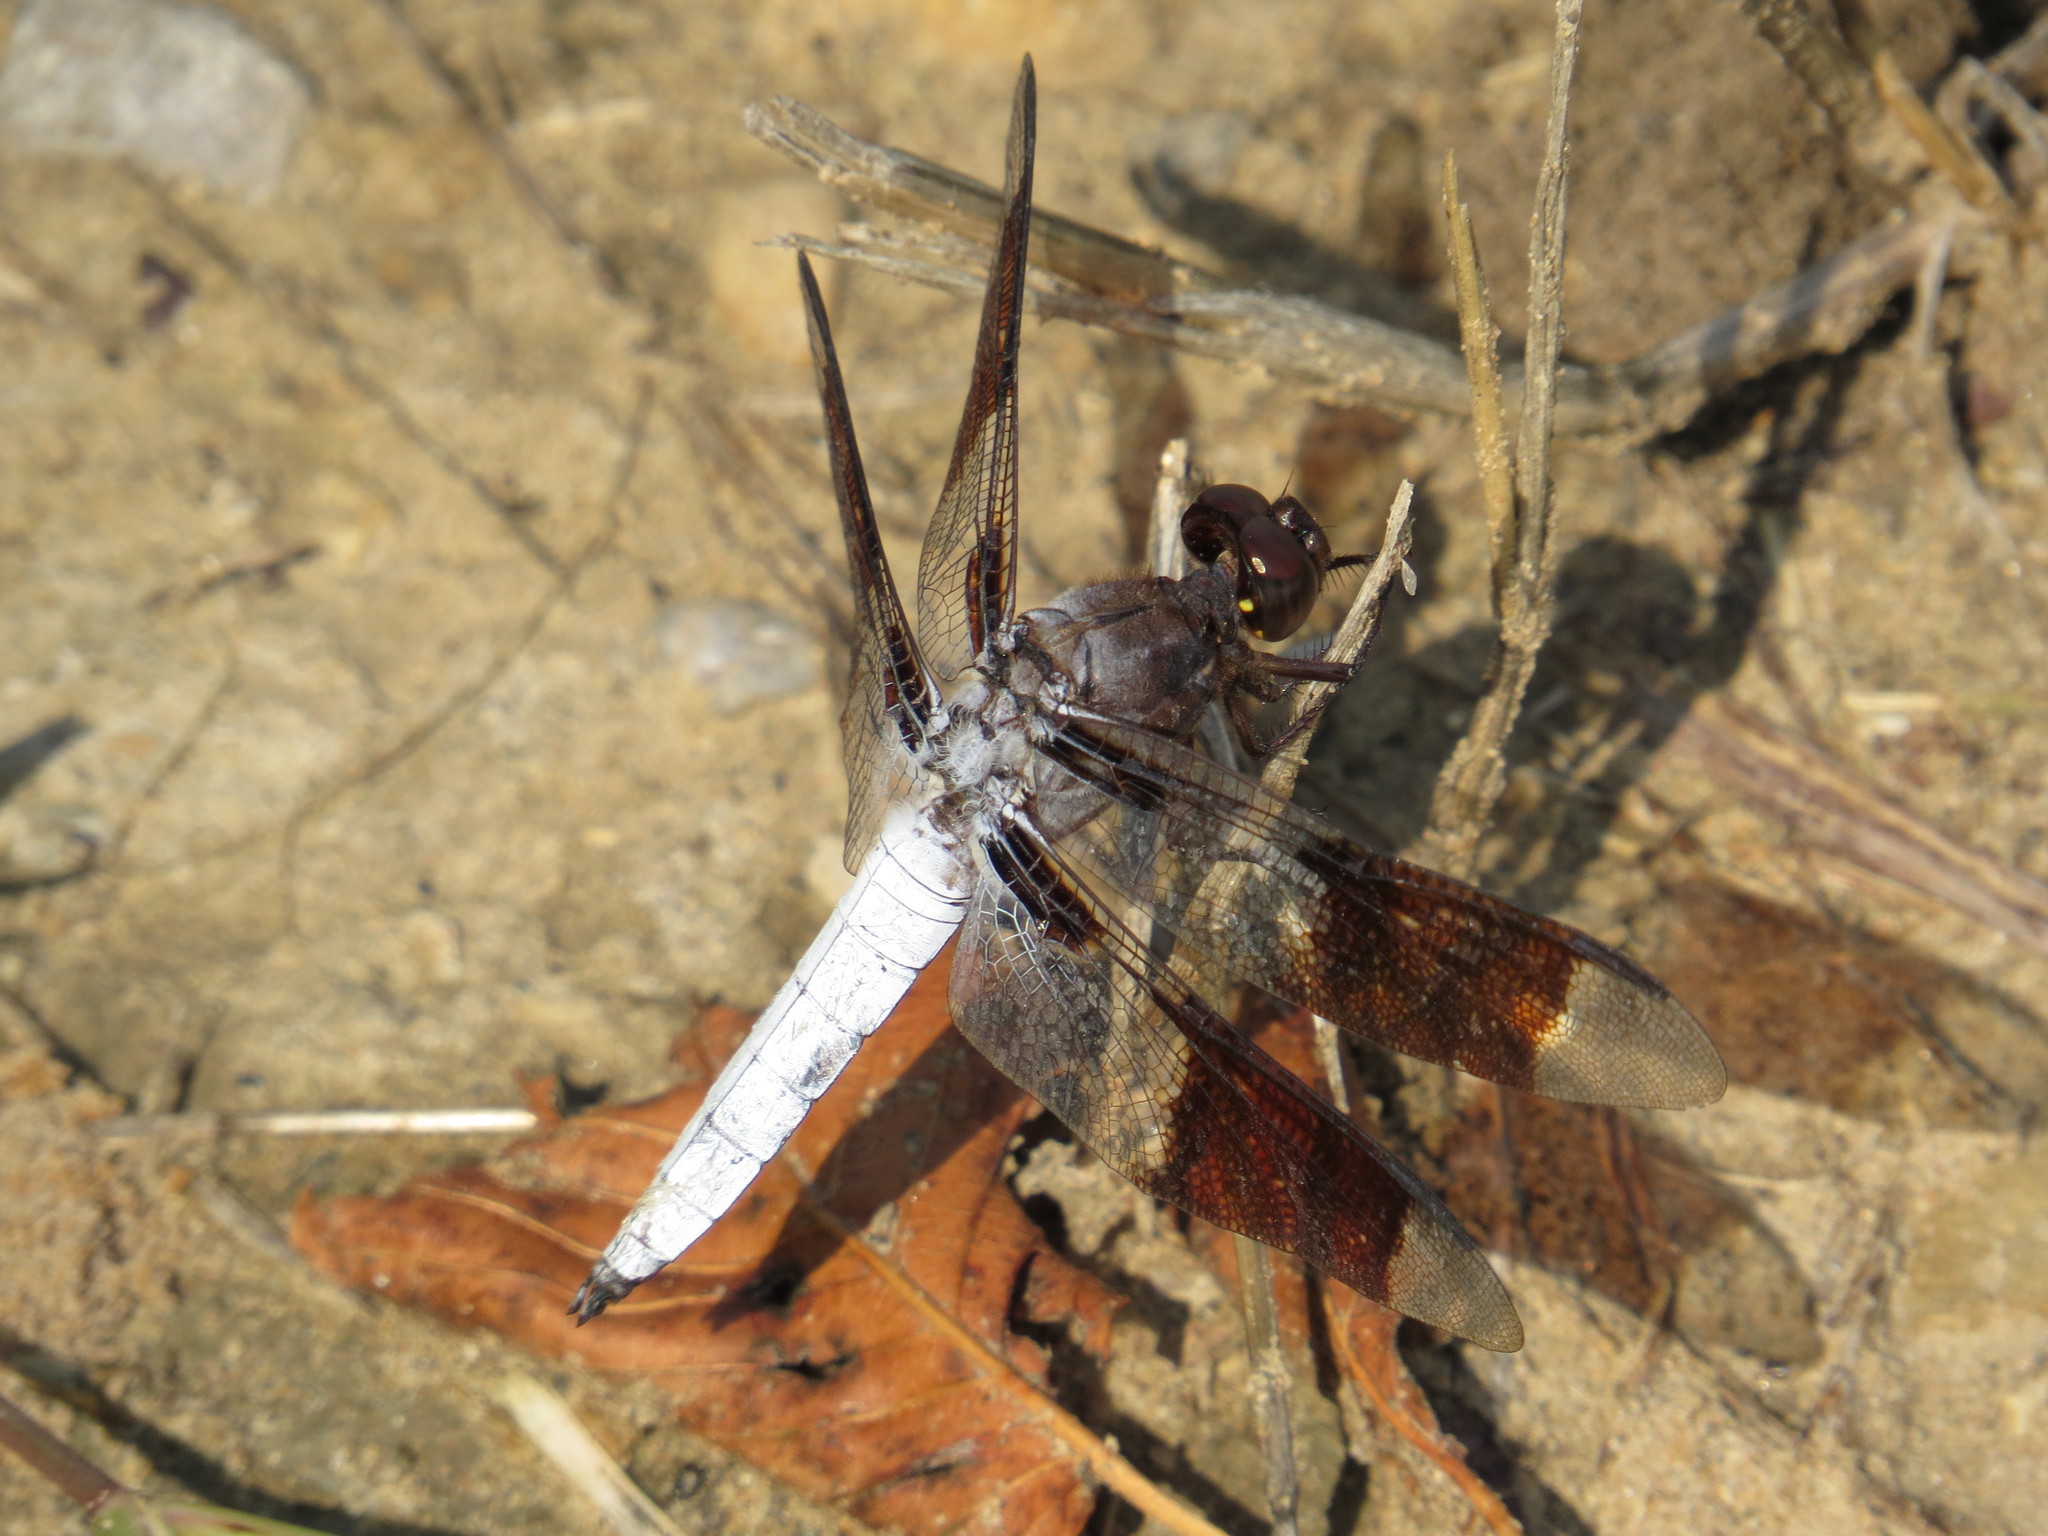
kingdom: Animalia
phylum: Arthropoda
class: Insecta
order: Odonata
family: Libellulidae
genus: Plathemis
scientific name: Plathemis lydia
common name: Common whitetail
